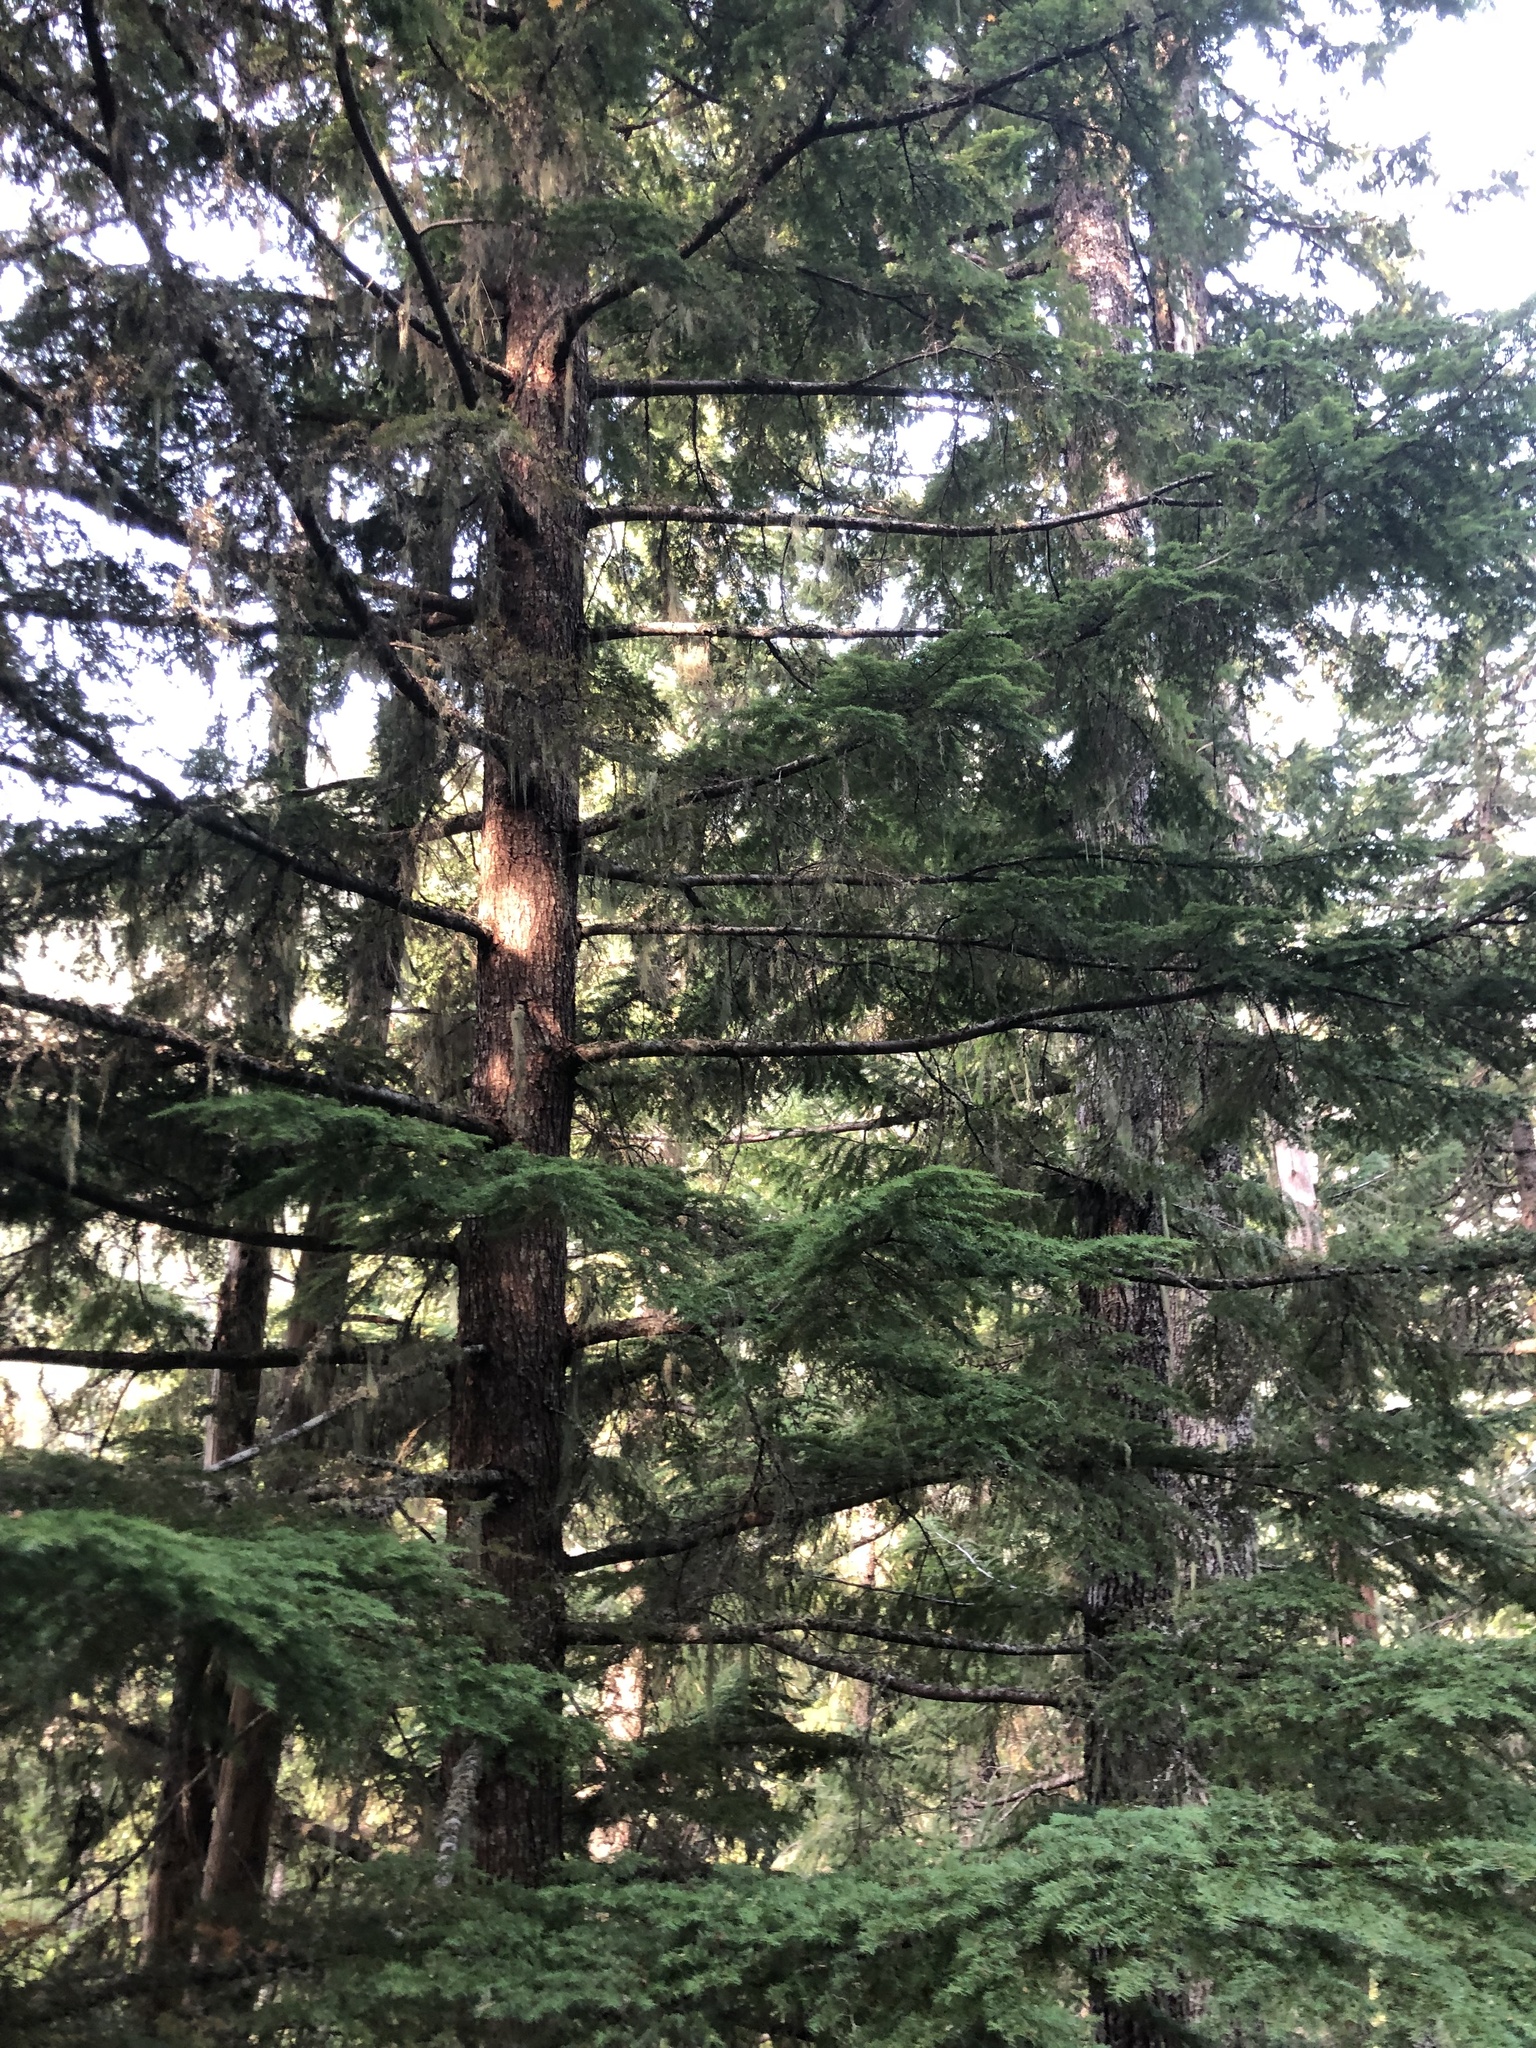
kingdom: Plantae
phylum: Tracheophyta
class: Pinopsida
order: Pinales
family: Pinaceae
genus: Tsuga
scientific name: Tsuga heterophylla
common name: Western hemlock
